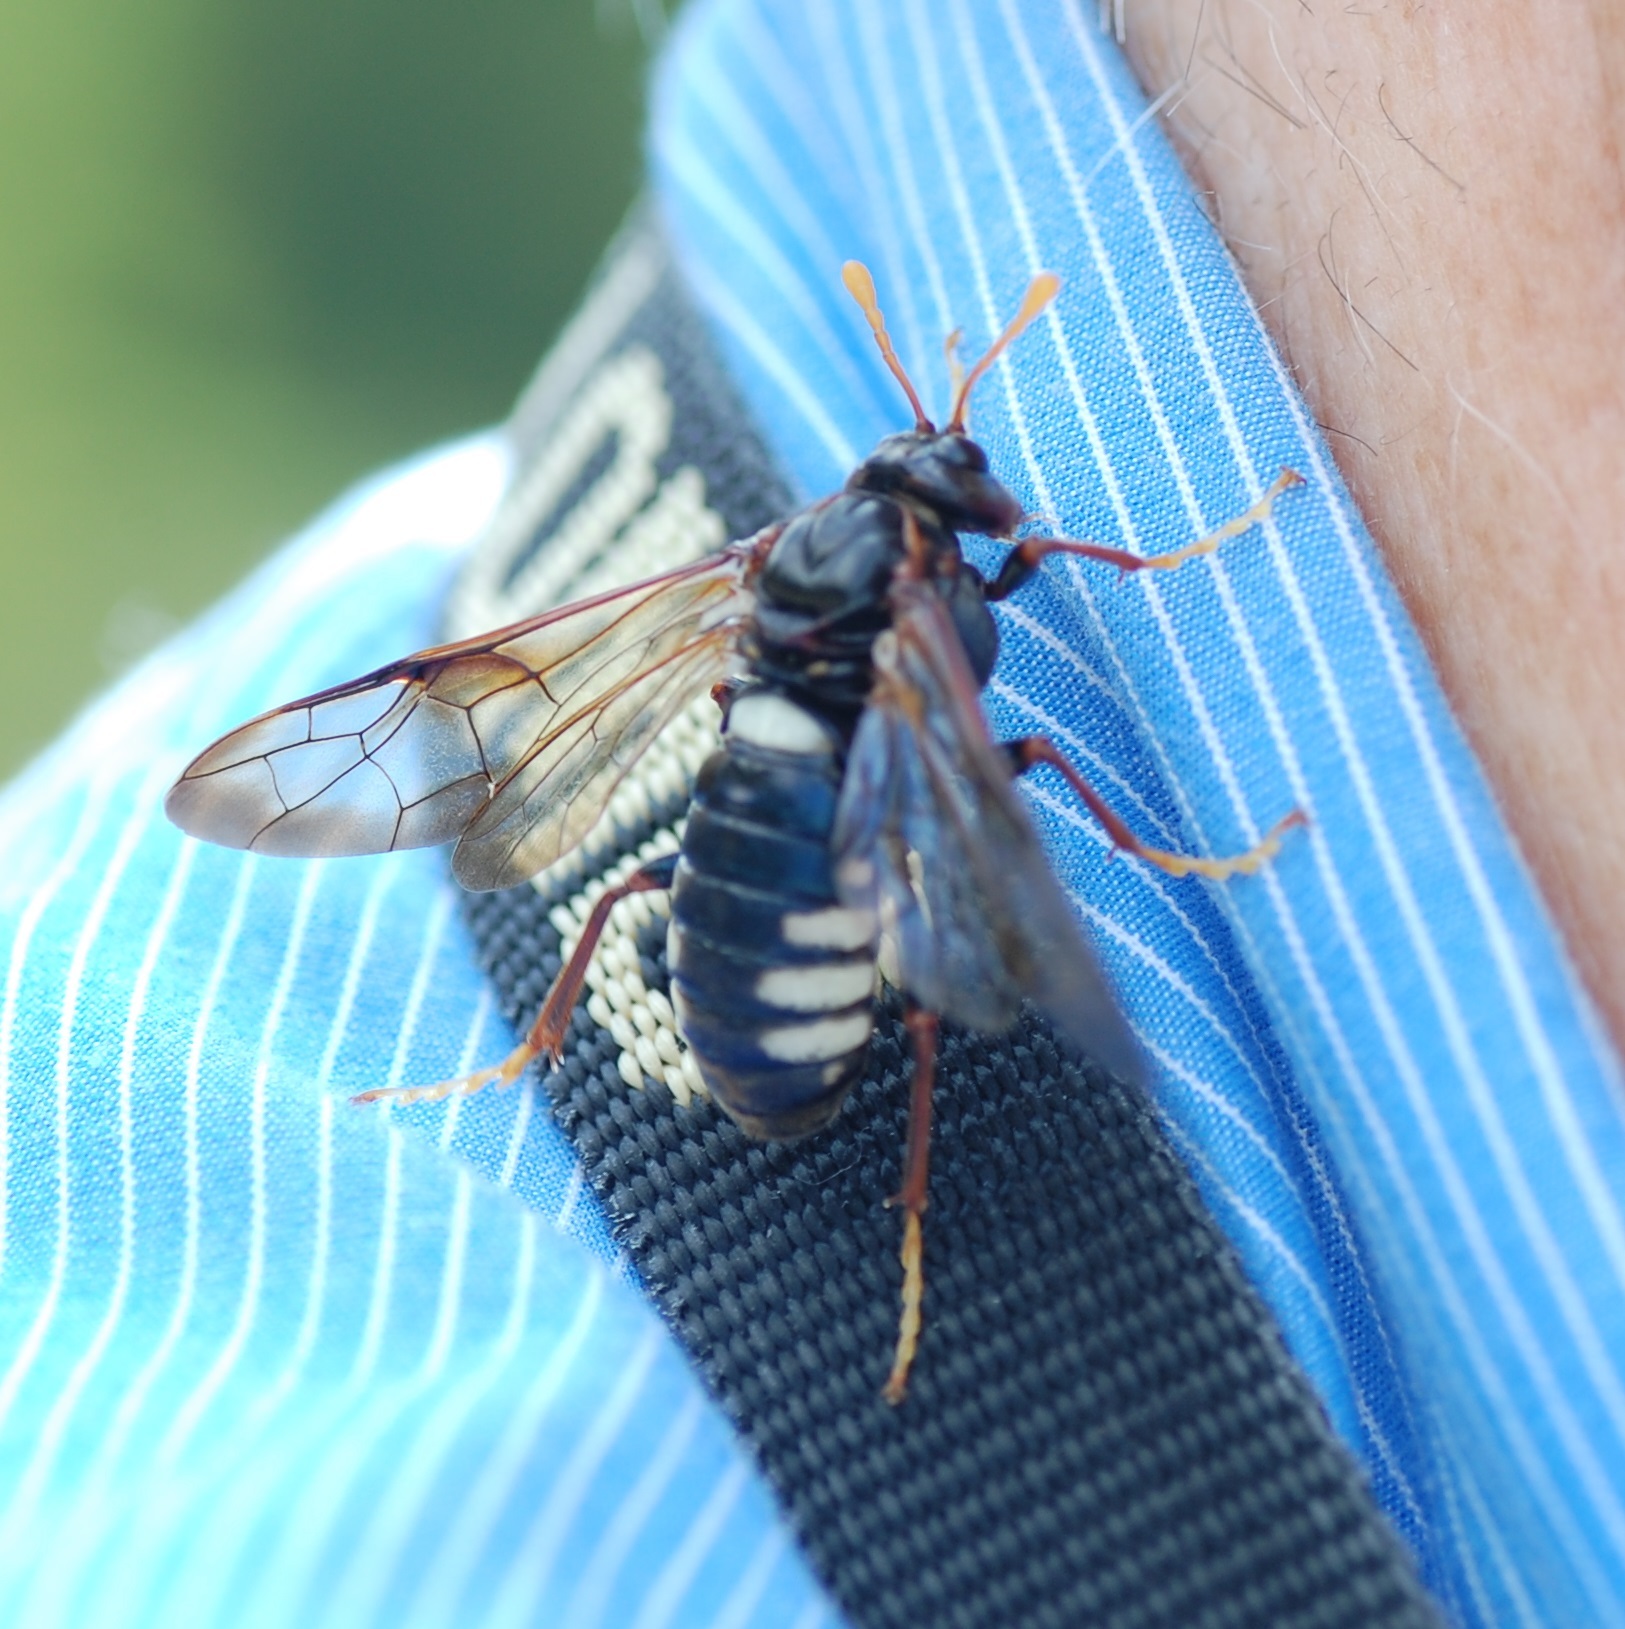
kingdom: Animalia
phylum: Arthropoda
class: Insecta
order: Hymenoptera
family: Cimbicidae
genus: Cimbex
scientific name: Cimbex americana
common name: Elm sawfly
